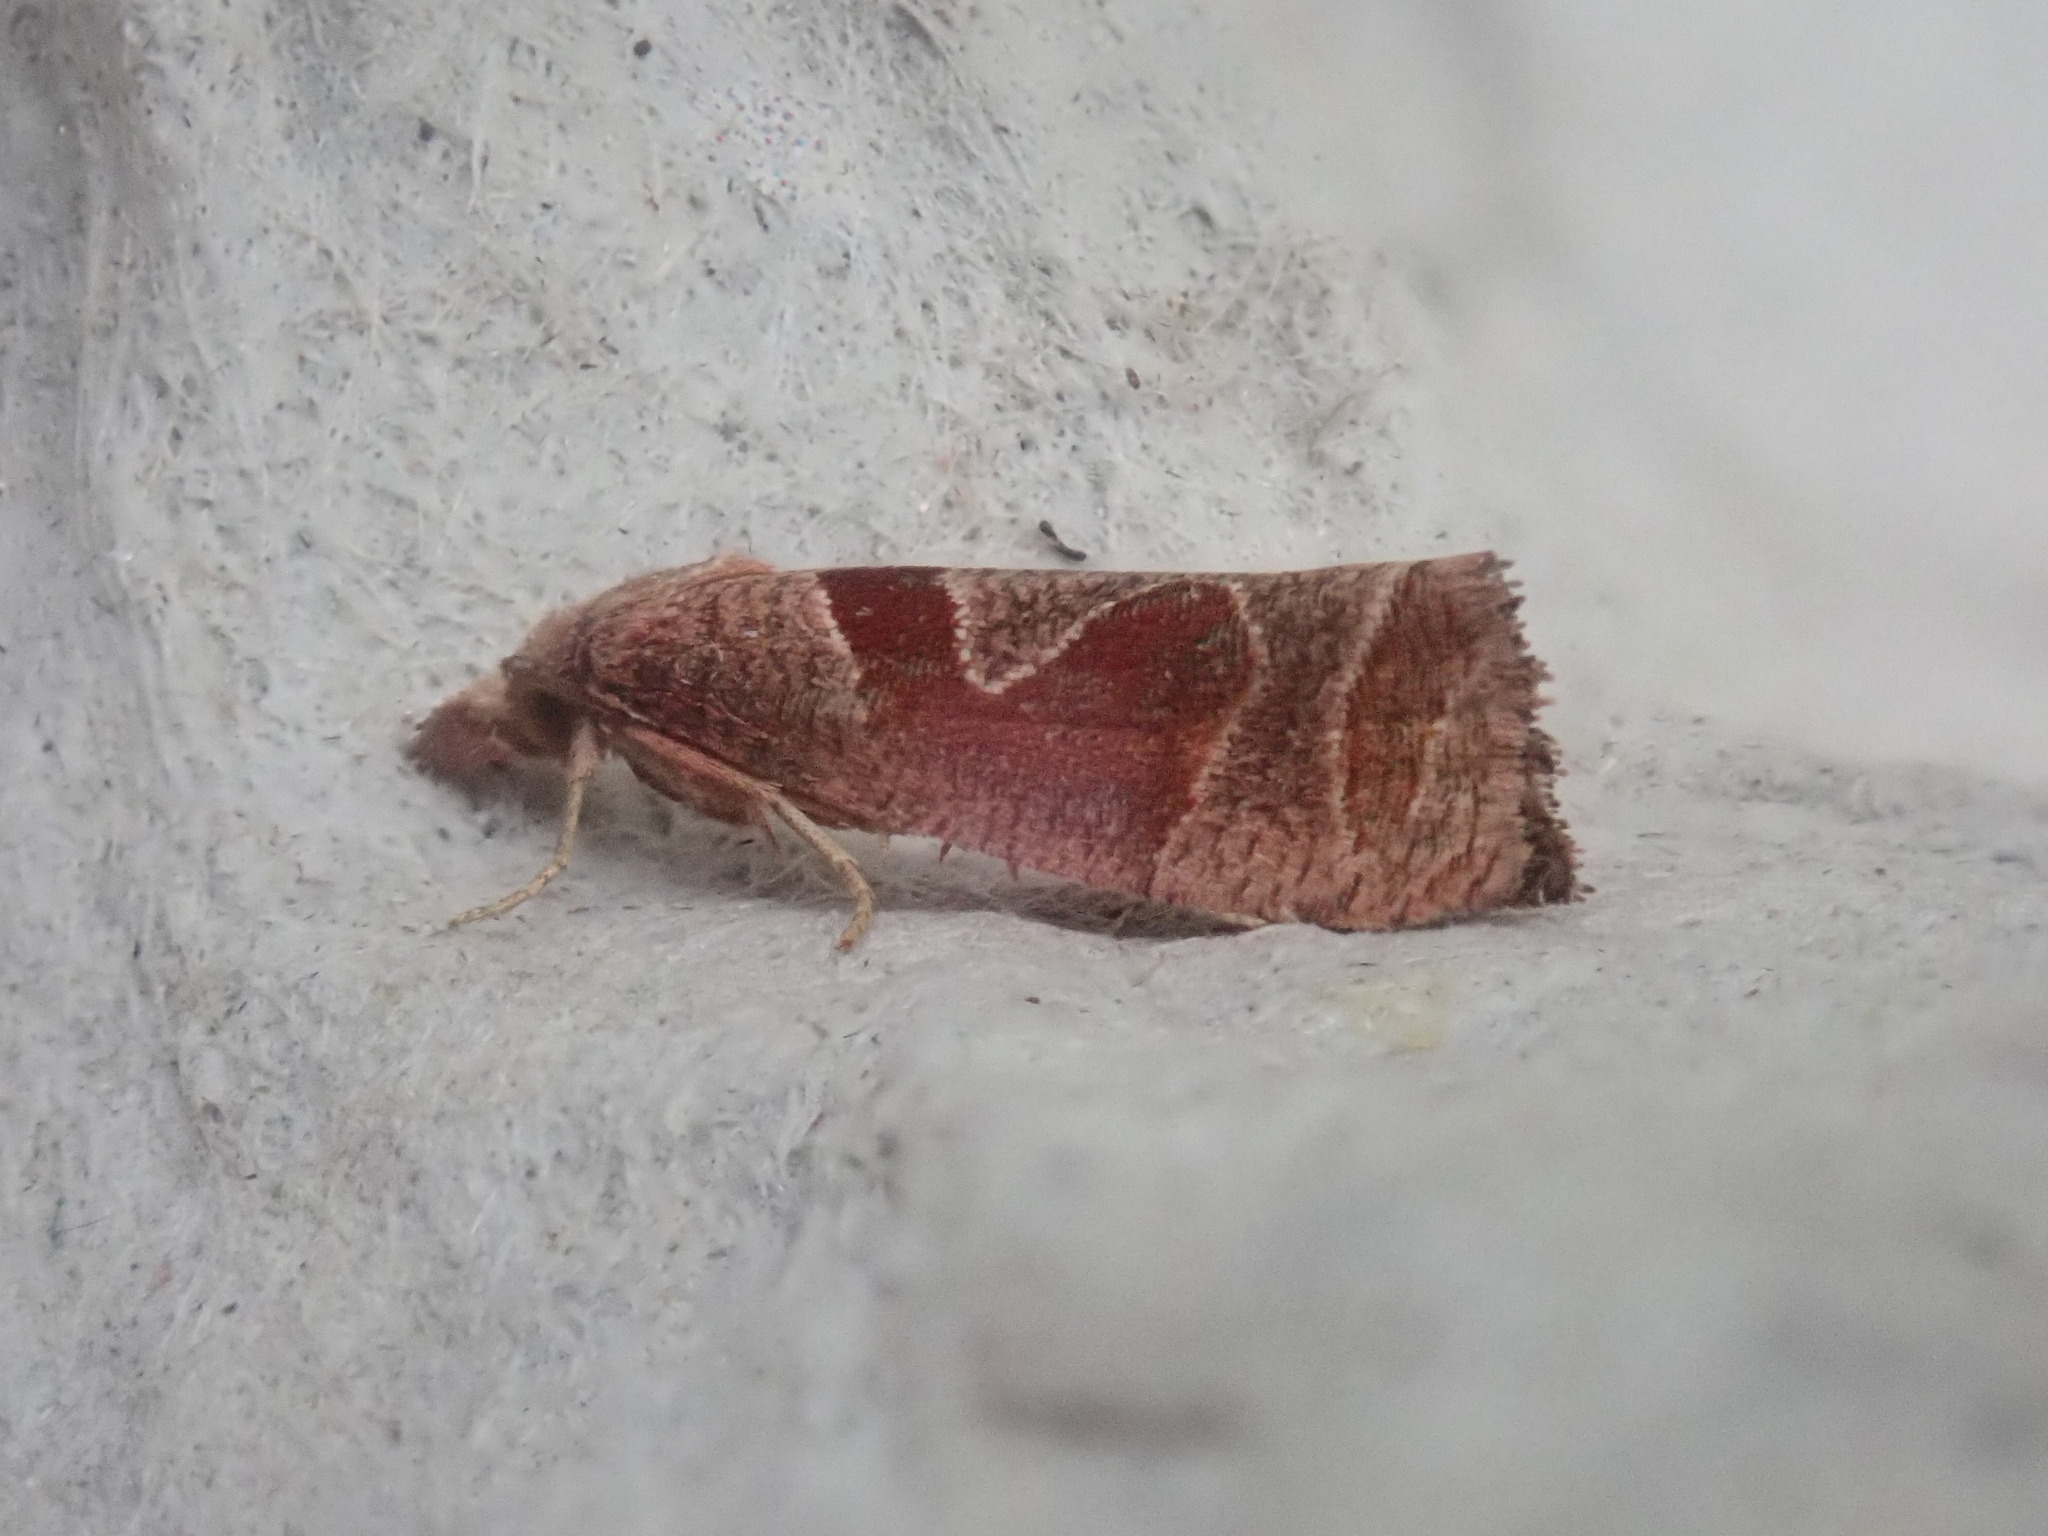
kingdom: Animalia
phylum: Arthropoda
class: Insecta
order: Lepidoptera
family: Tortricidae
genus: Pelochrista
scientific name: Pelochrista similiana
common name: Similar eucosma
